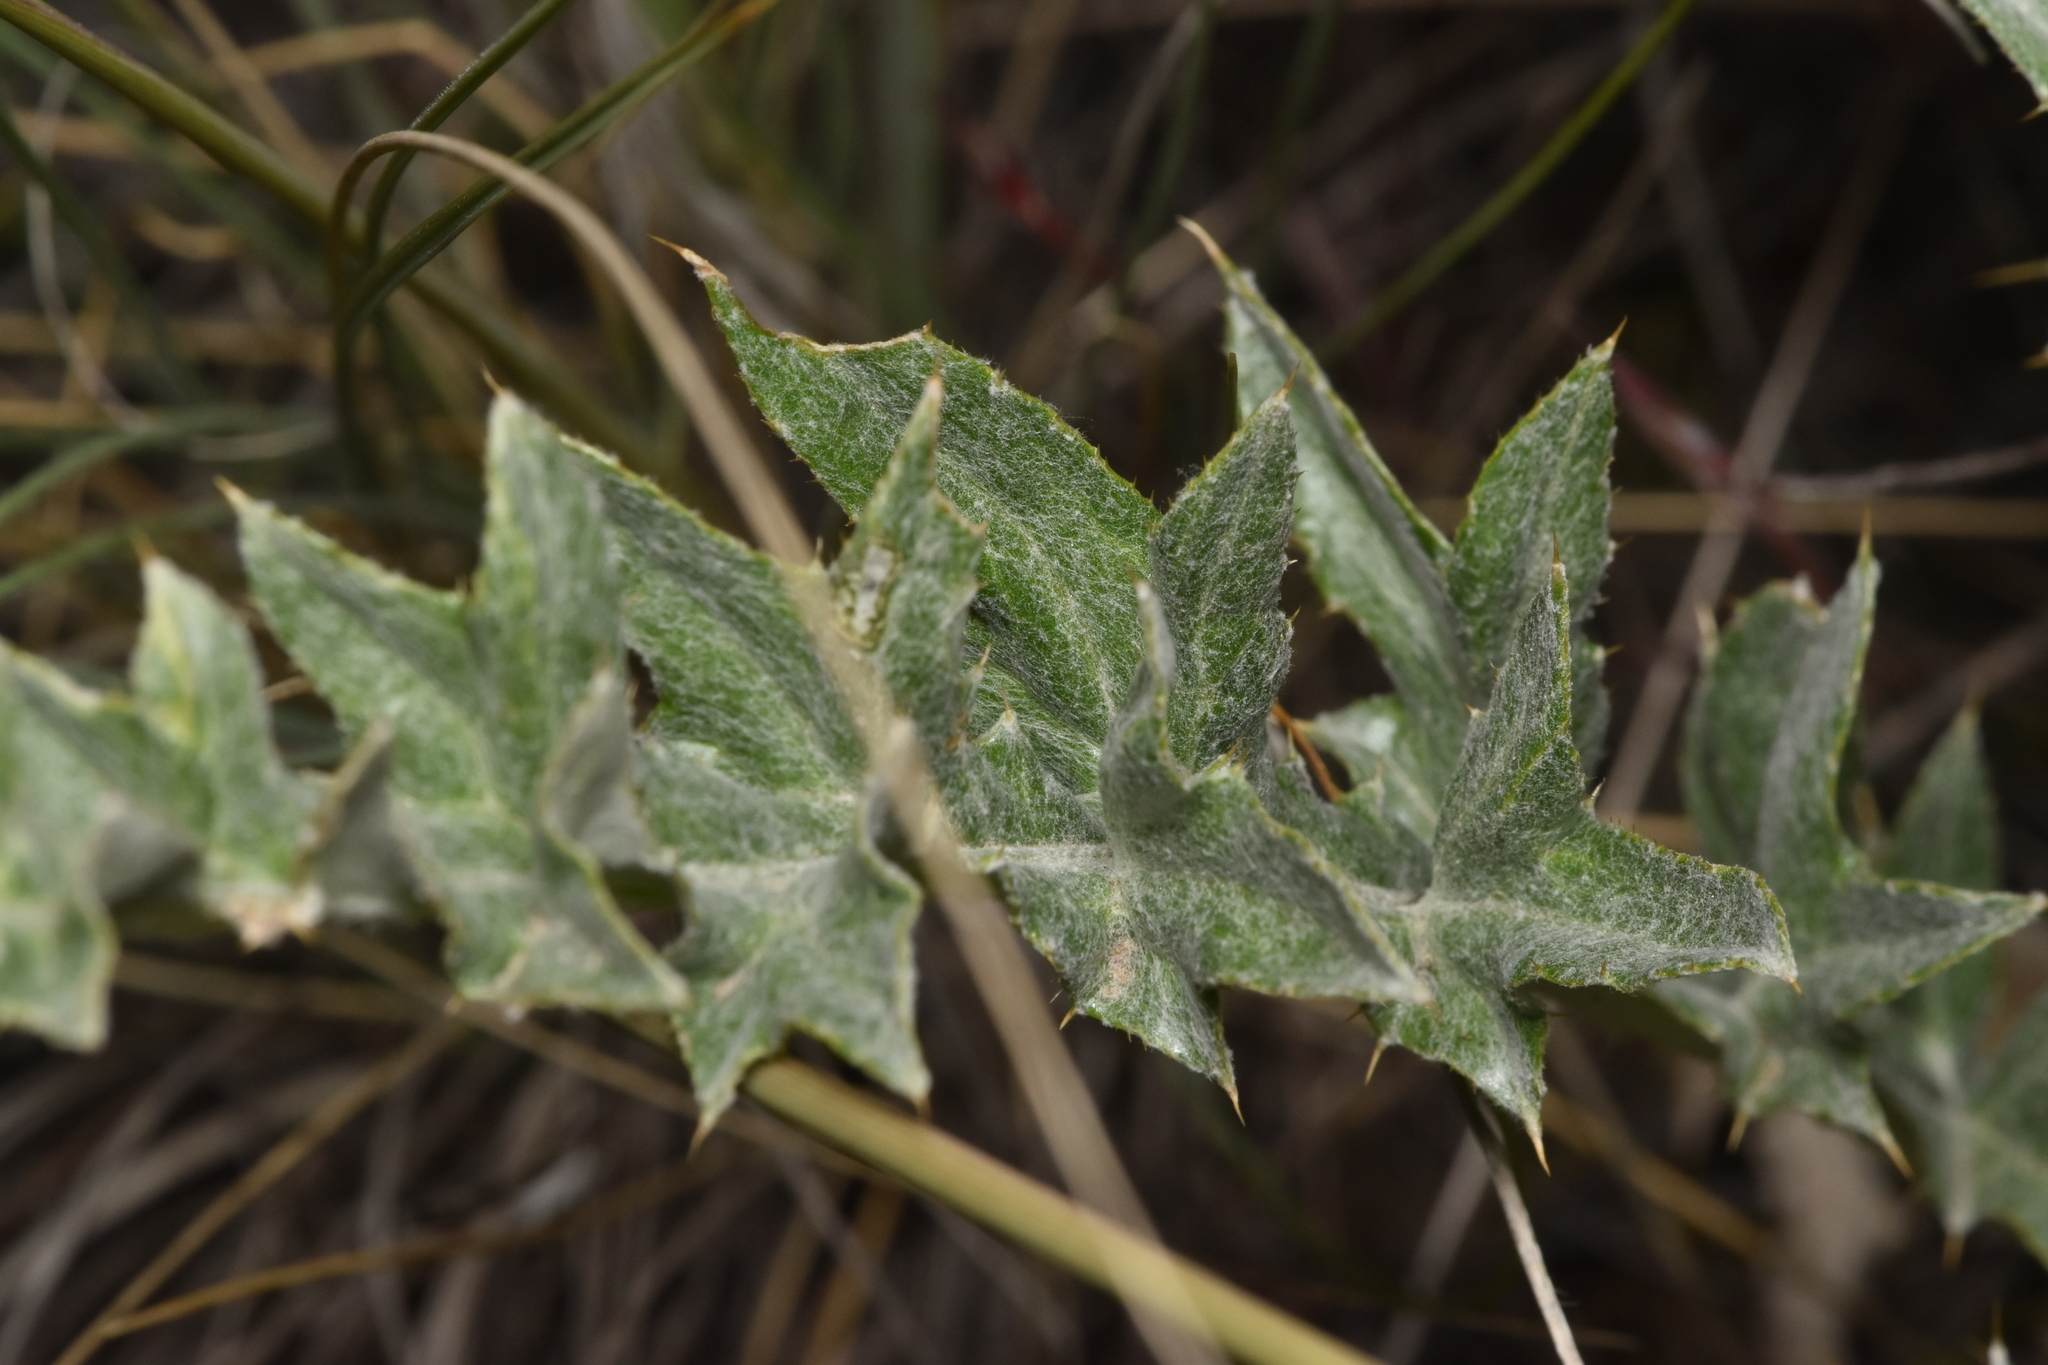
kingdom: Plantae
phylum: Tracheophyta
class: Magnoliopsida
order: Asterales
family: Asteraceae
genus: Cirsium
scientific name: Cirsium undulatum
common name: Pasture thistle
